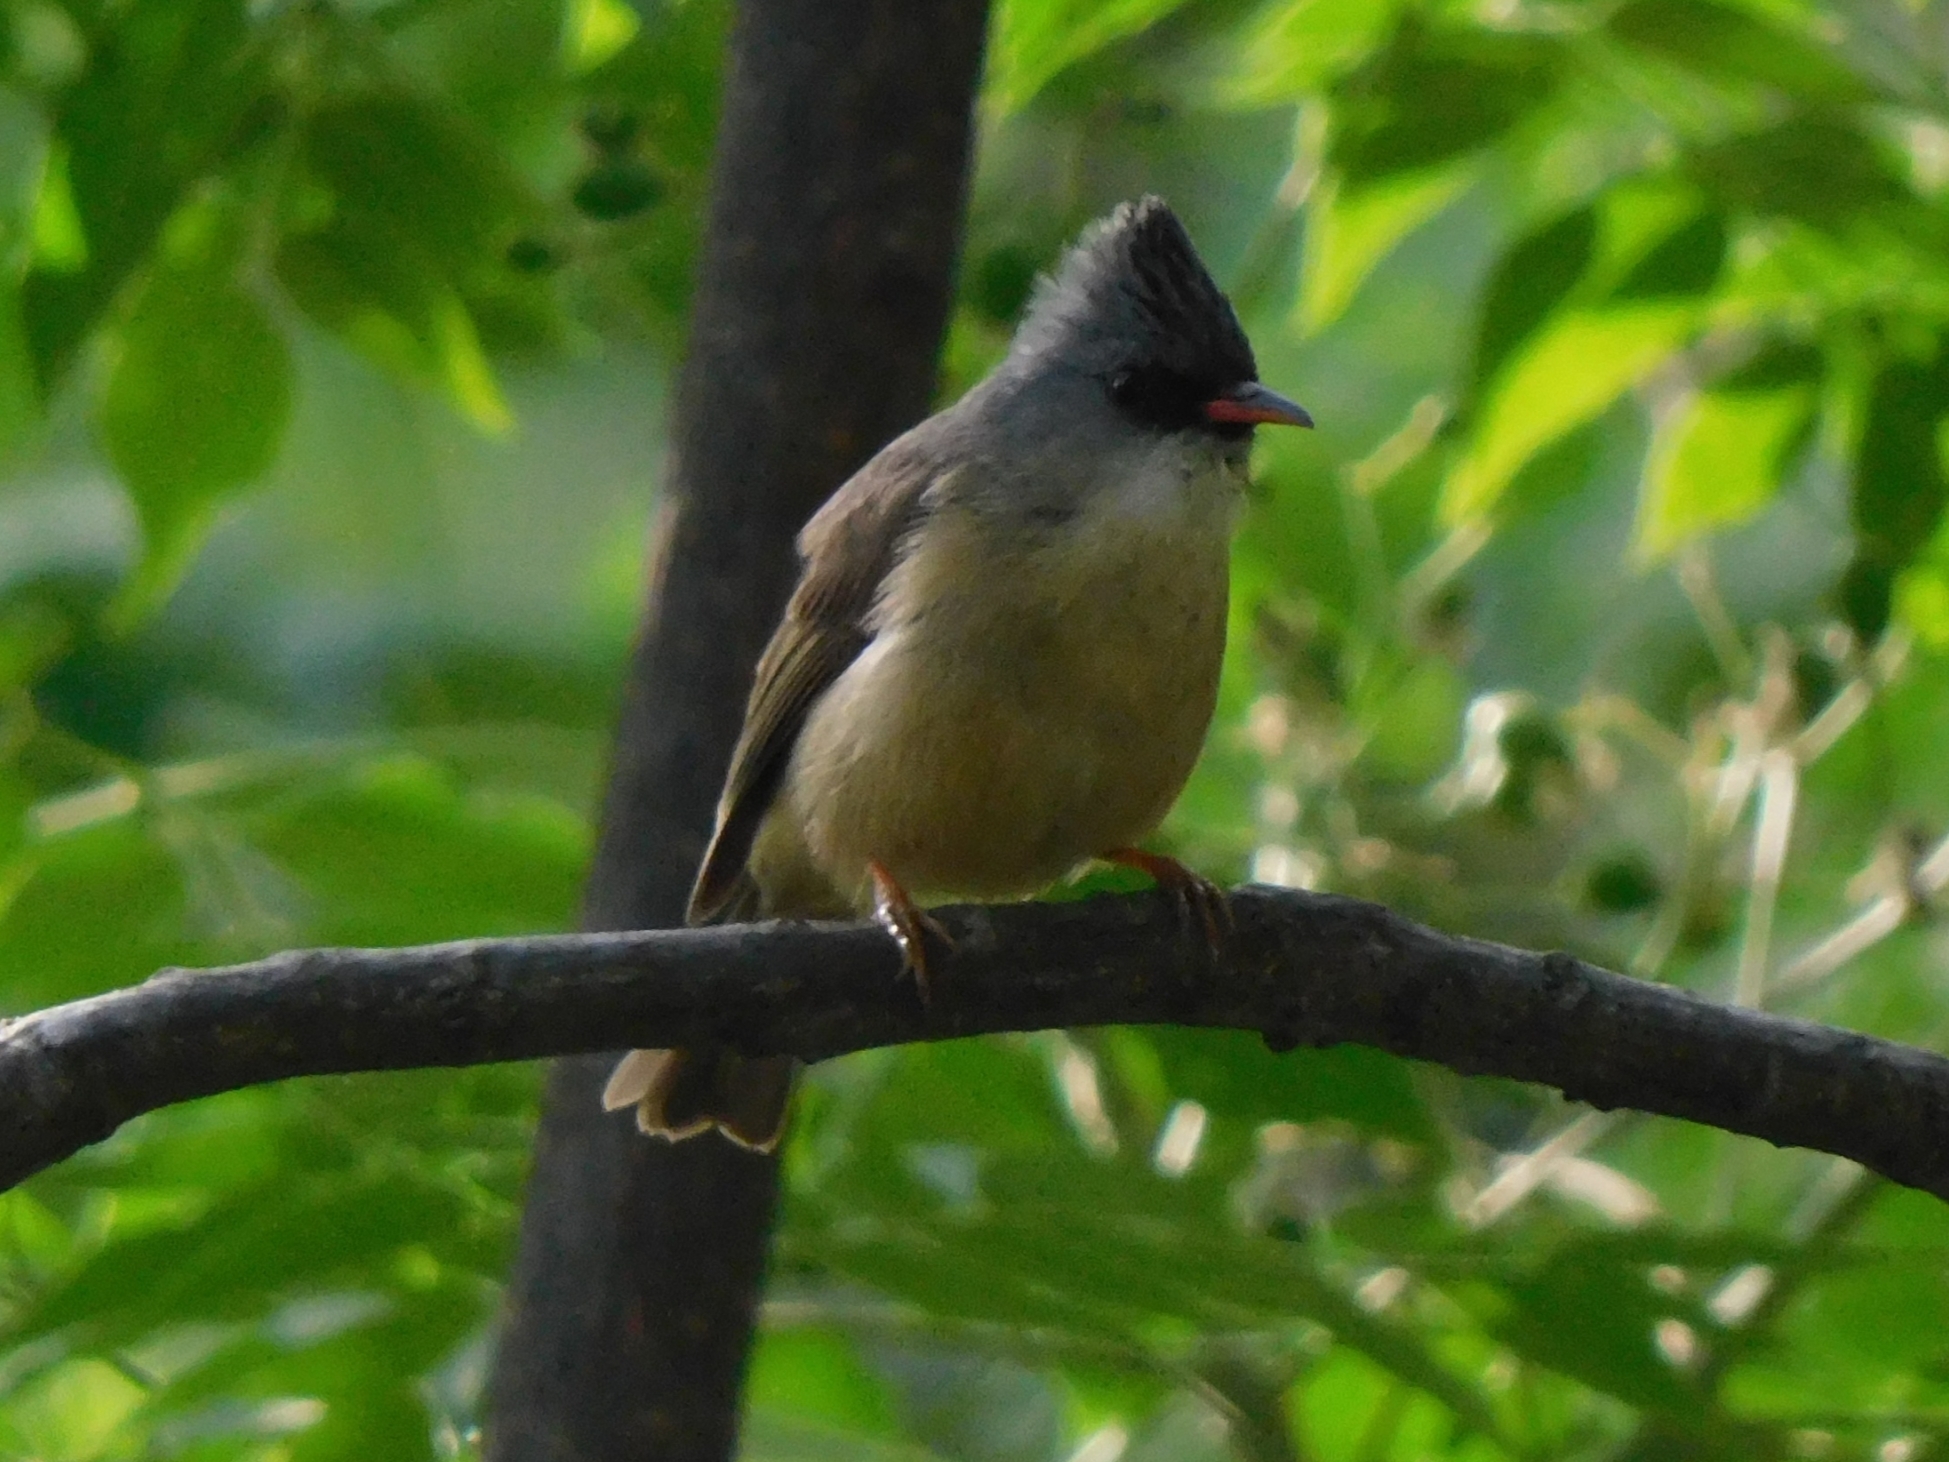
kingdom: Animalia
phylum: Chordata
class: Aves
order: Passeriformes
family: Zosteropidae
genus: Yuhina
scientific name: Yuhina nigrimenta
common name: Black-chinned yuhina
